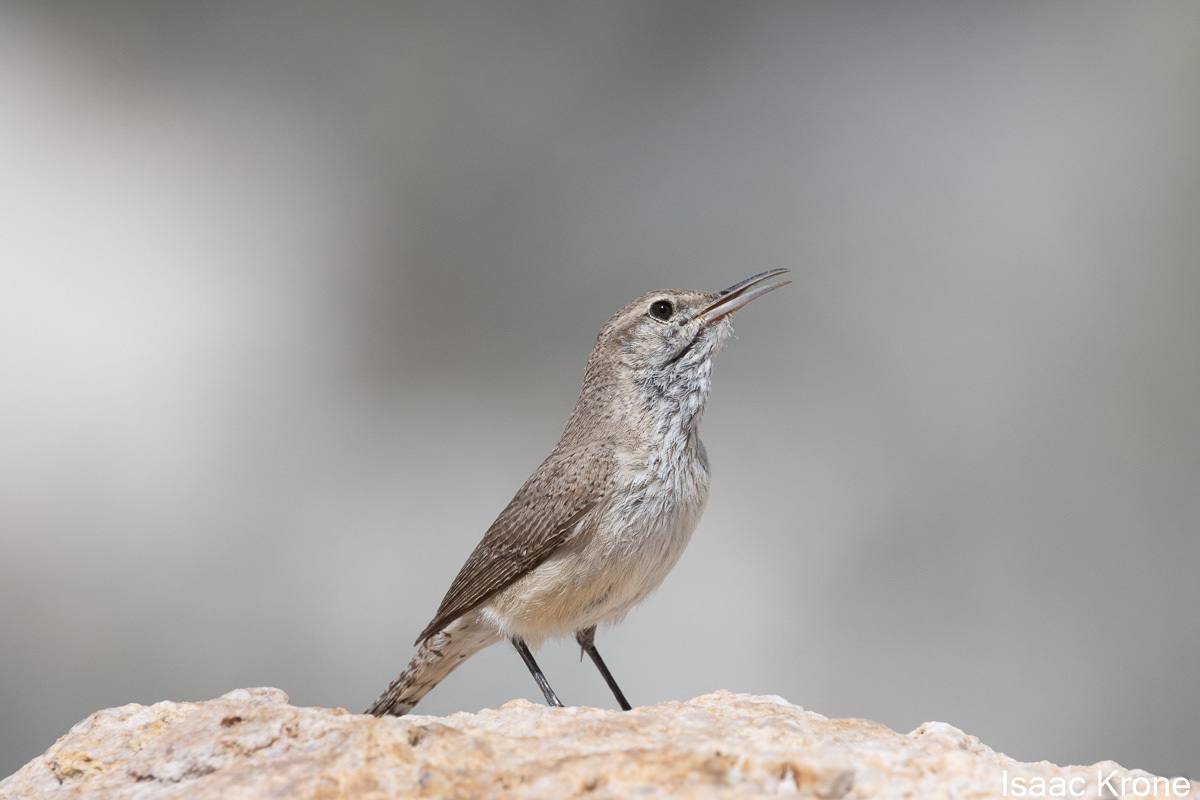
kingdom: Animalia
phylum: Chordata
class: Aves
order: Passeriformes
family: Troglodytidae
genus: Salpinctes
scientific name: Salpinctes obsoletus
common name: Rock wren
